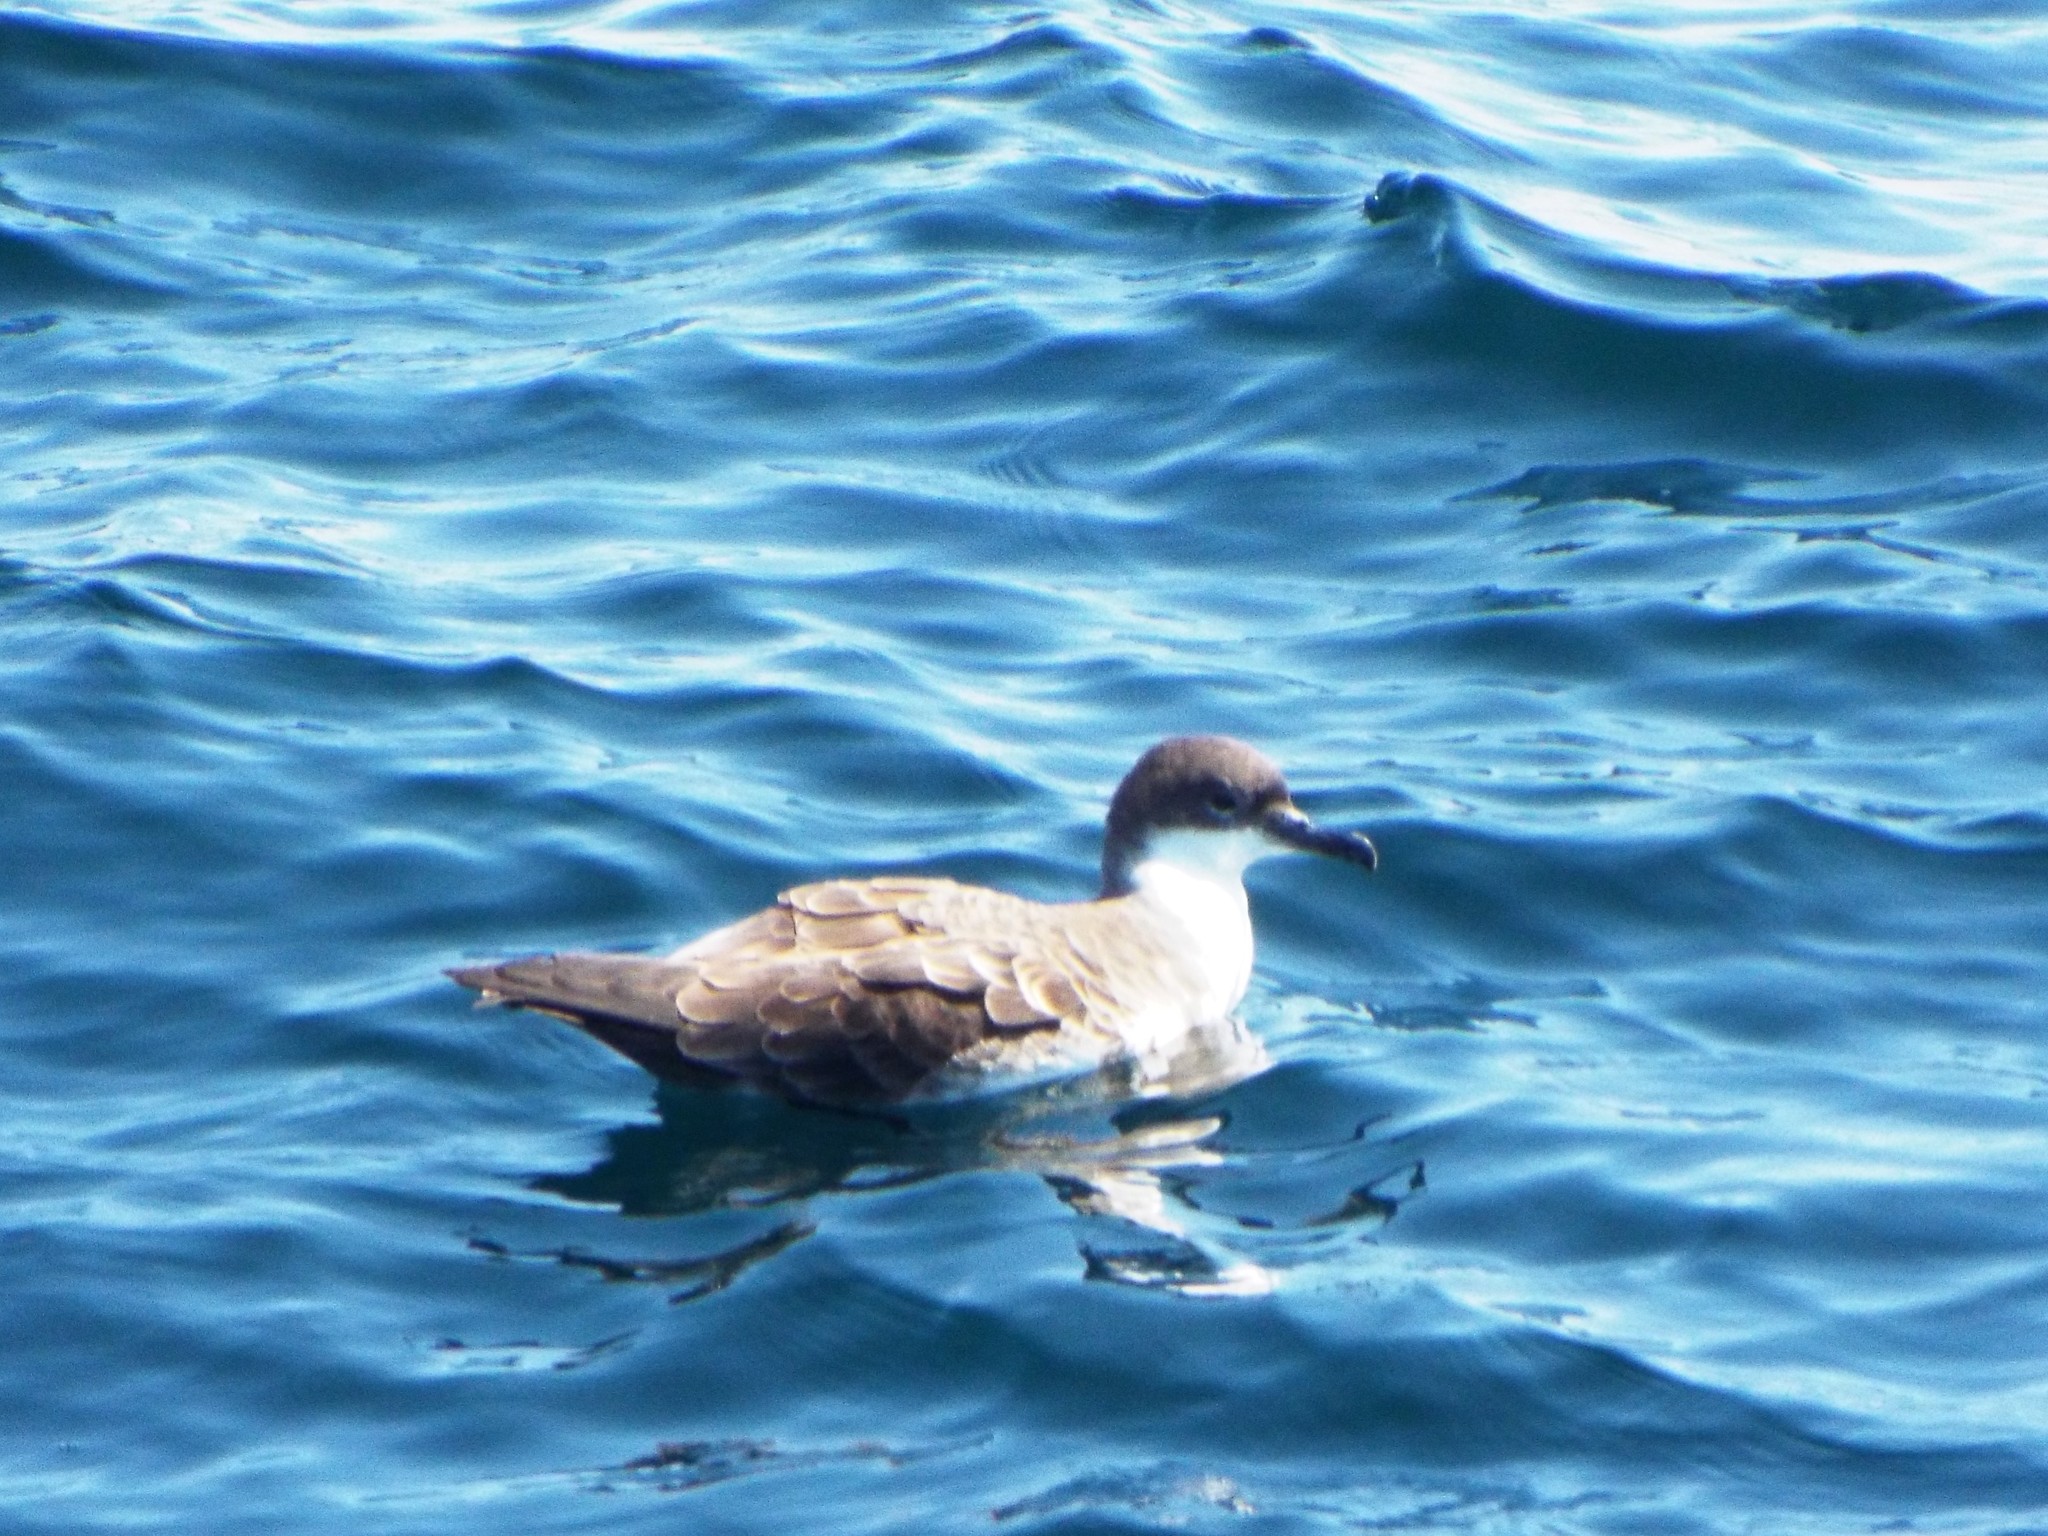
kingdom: Animalia
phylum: Chordata
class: Aves
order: Procellariiformes
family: Procellariidae
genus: Puffinus
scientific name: Puffinus gravis
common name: Great shearwater
